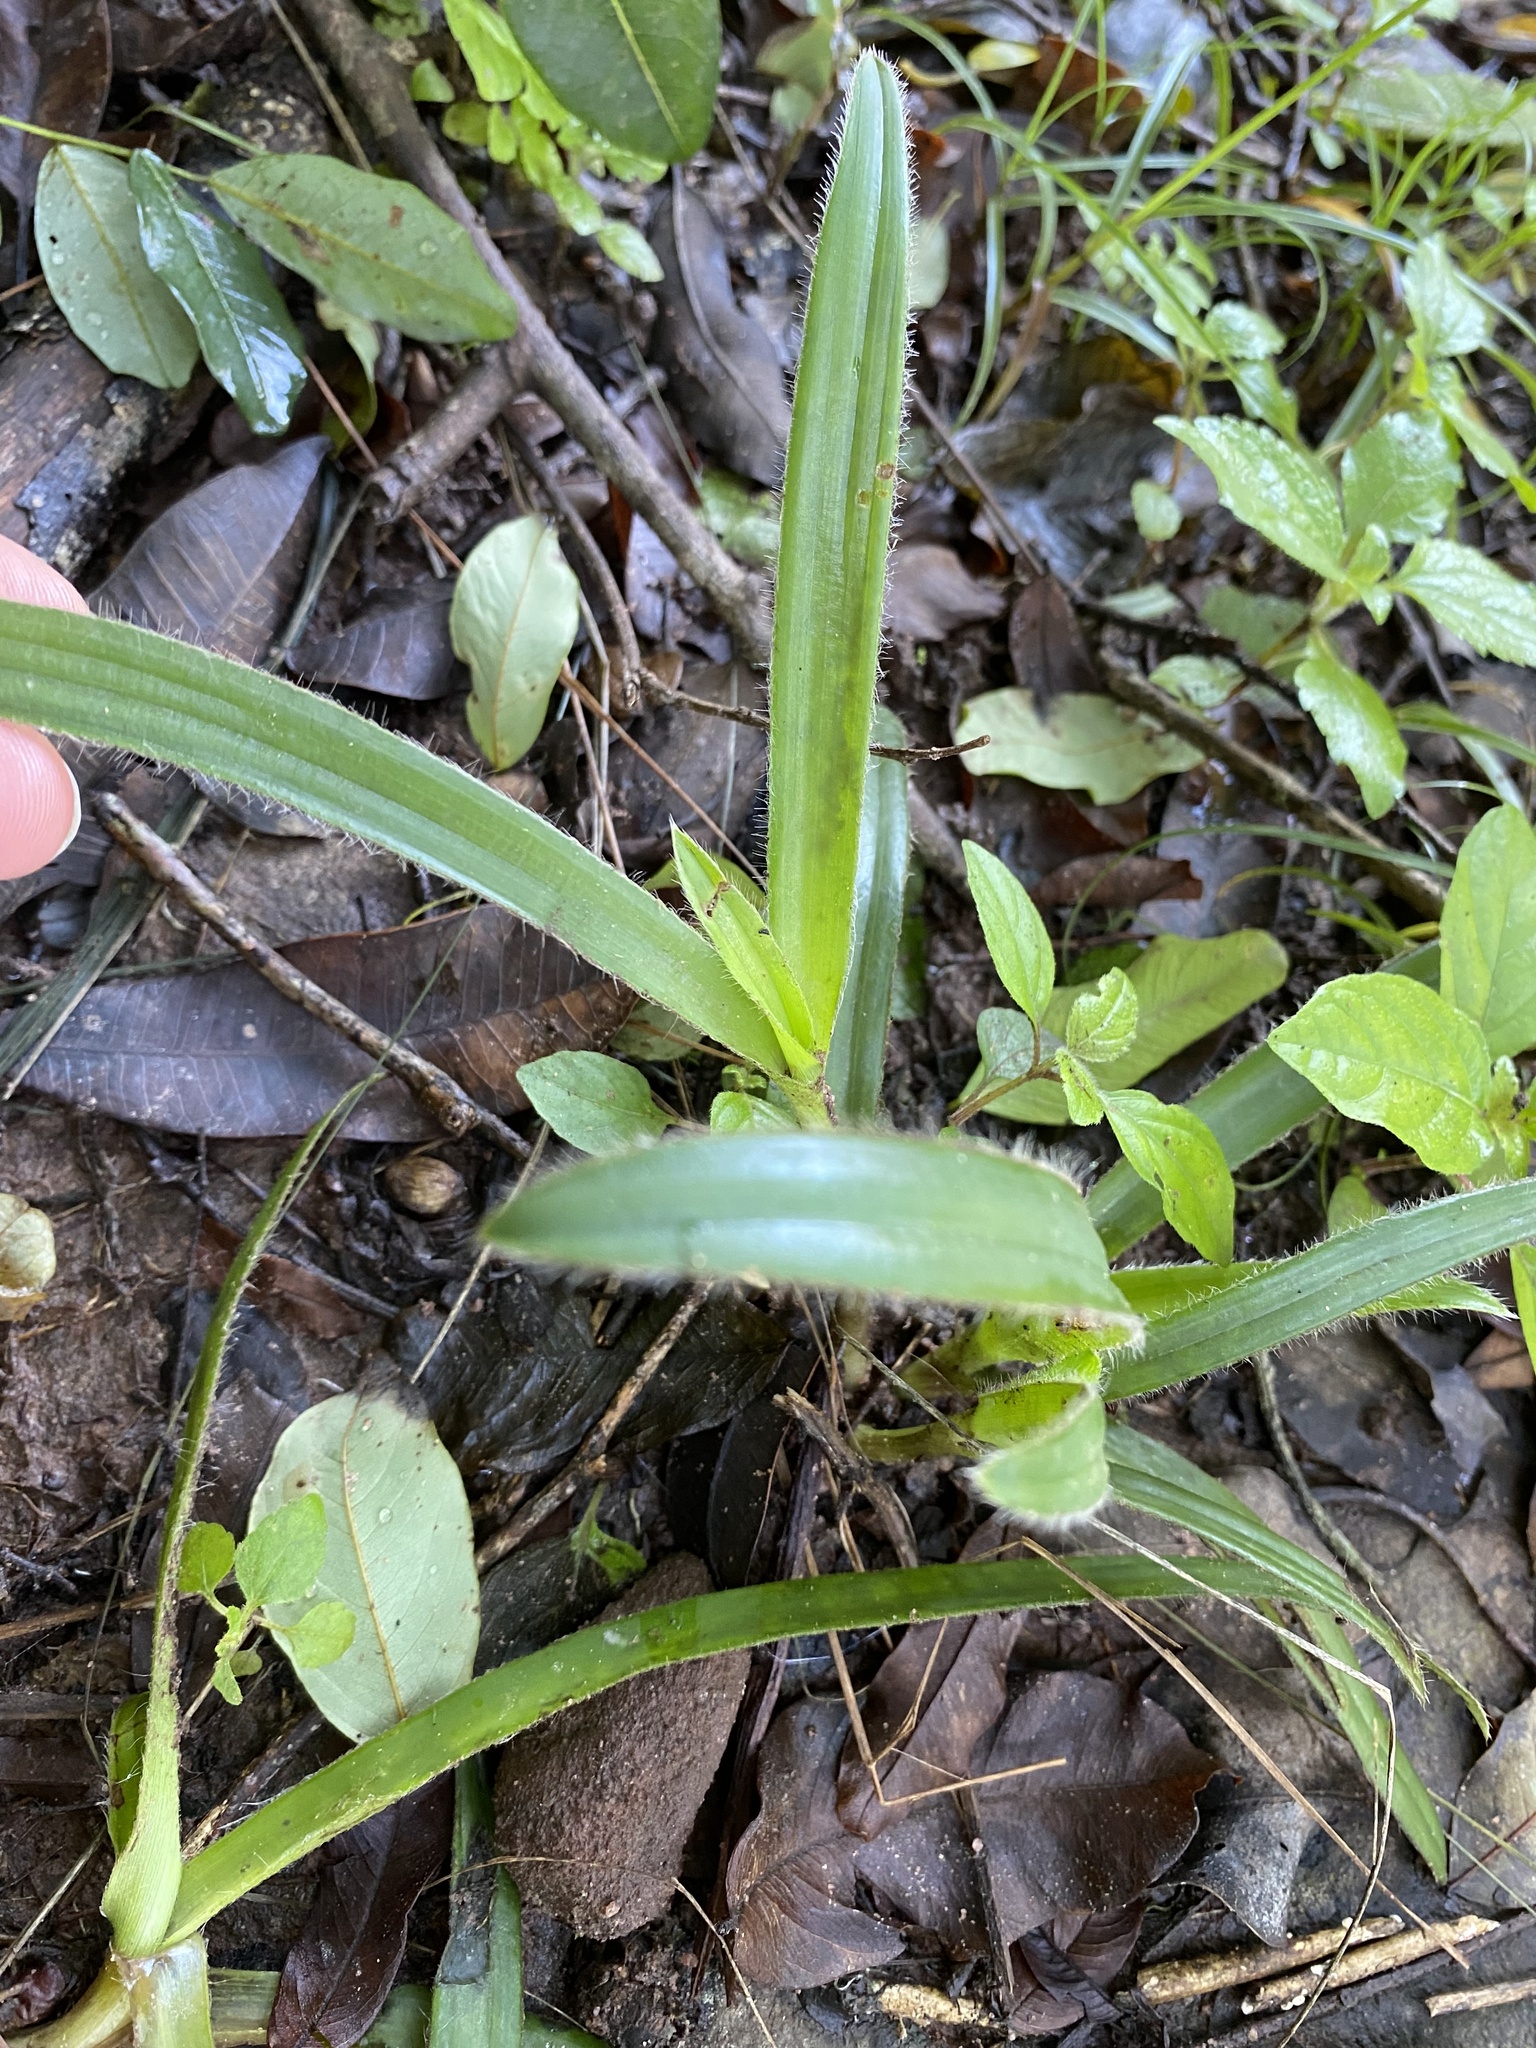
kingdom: Plantae
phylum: Tracheophyta
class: Liliopsida
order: Commelinales
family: Commelinaceae
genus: Cyanotis
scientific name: Cyanotis speciosa
